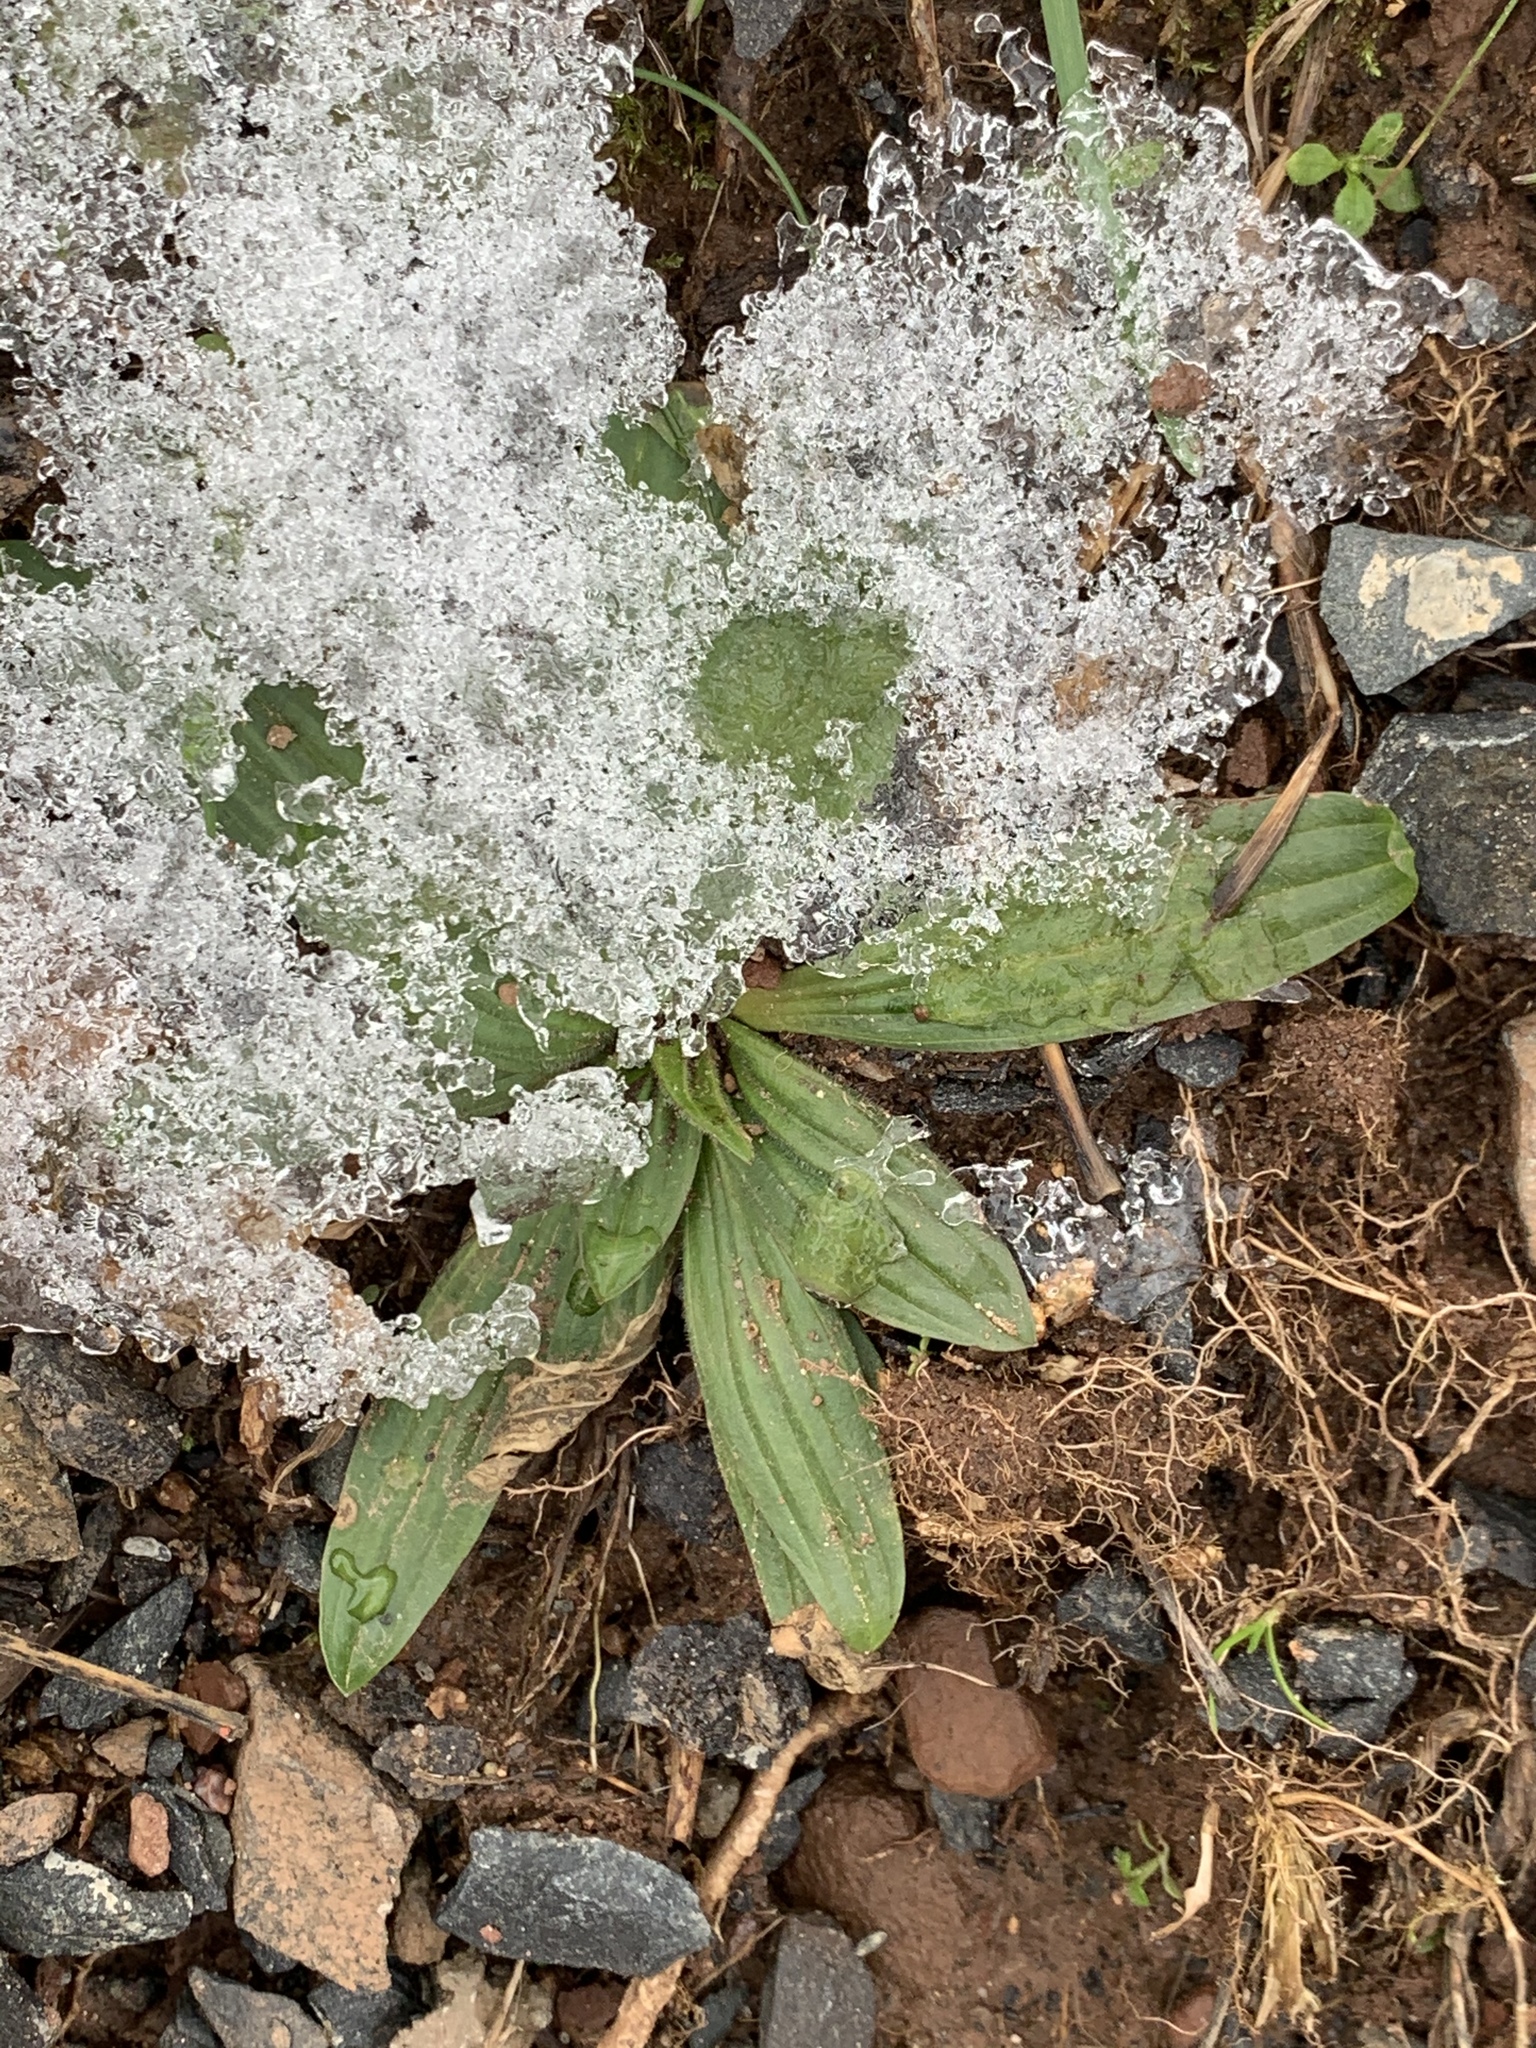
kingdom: Plantae
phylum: Tracheophyta
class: Magnoliopsida
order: Lamiales
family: Plantaginaceae
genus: Plantago
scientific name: Plantago lanceolata
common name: Ribwort plantain
